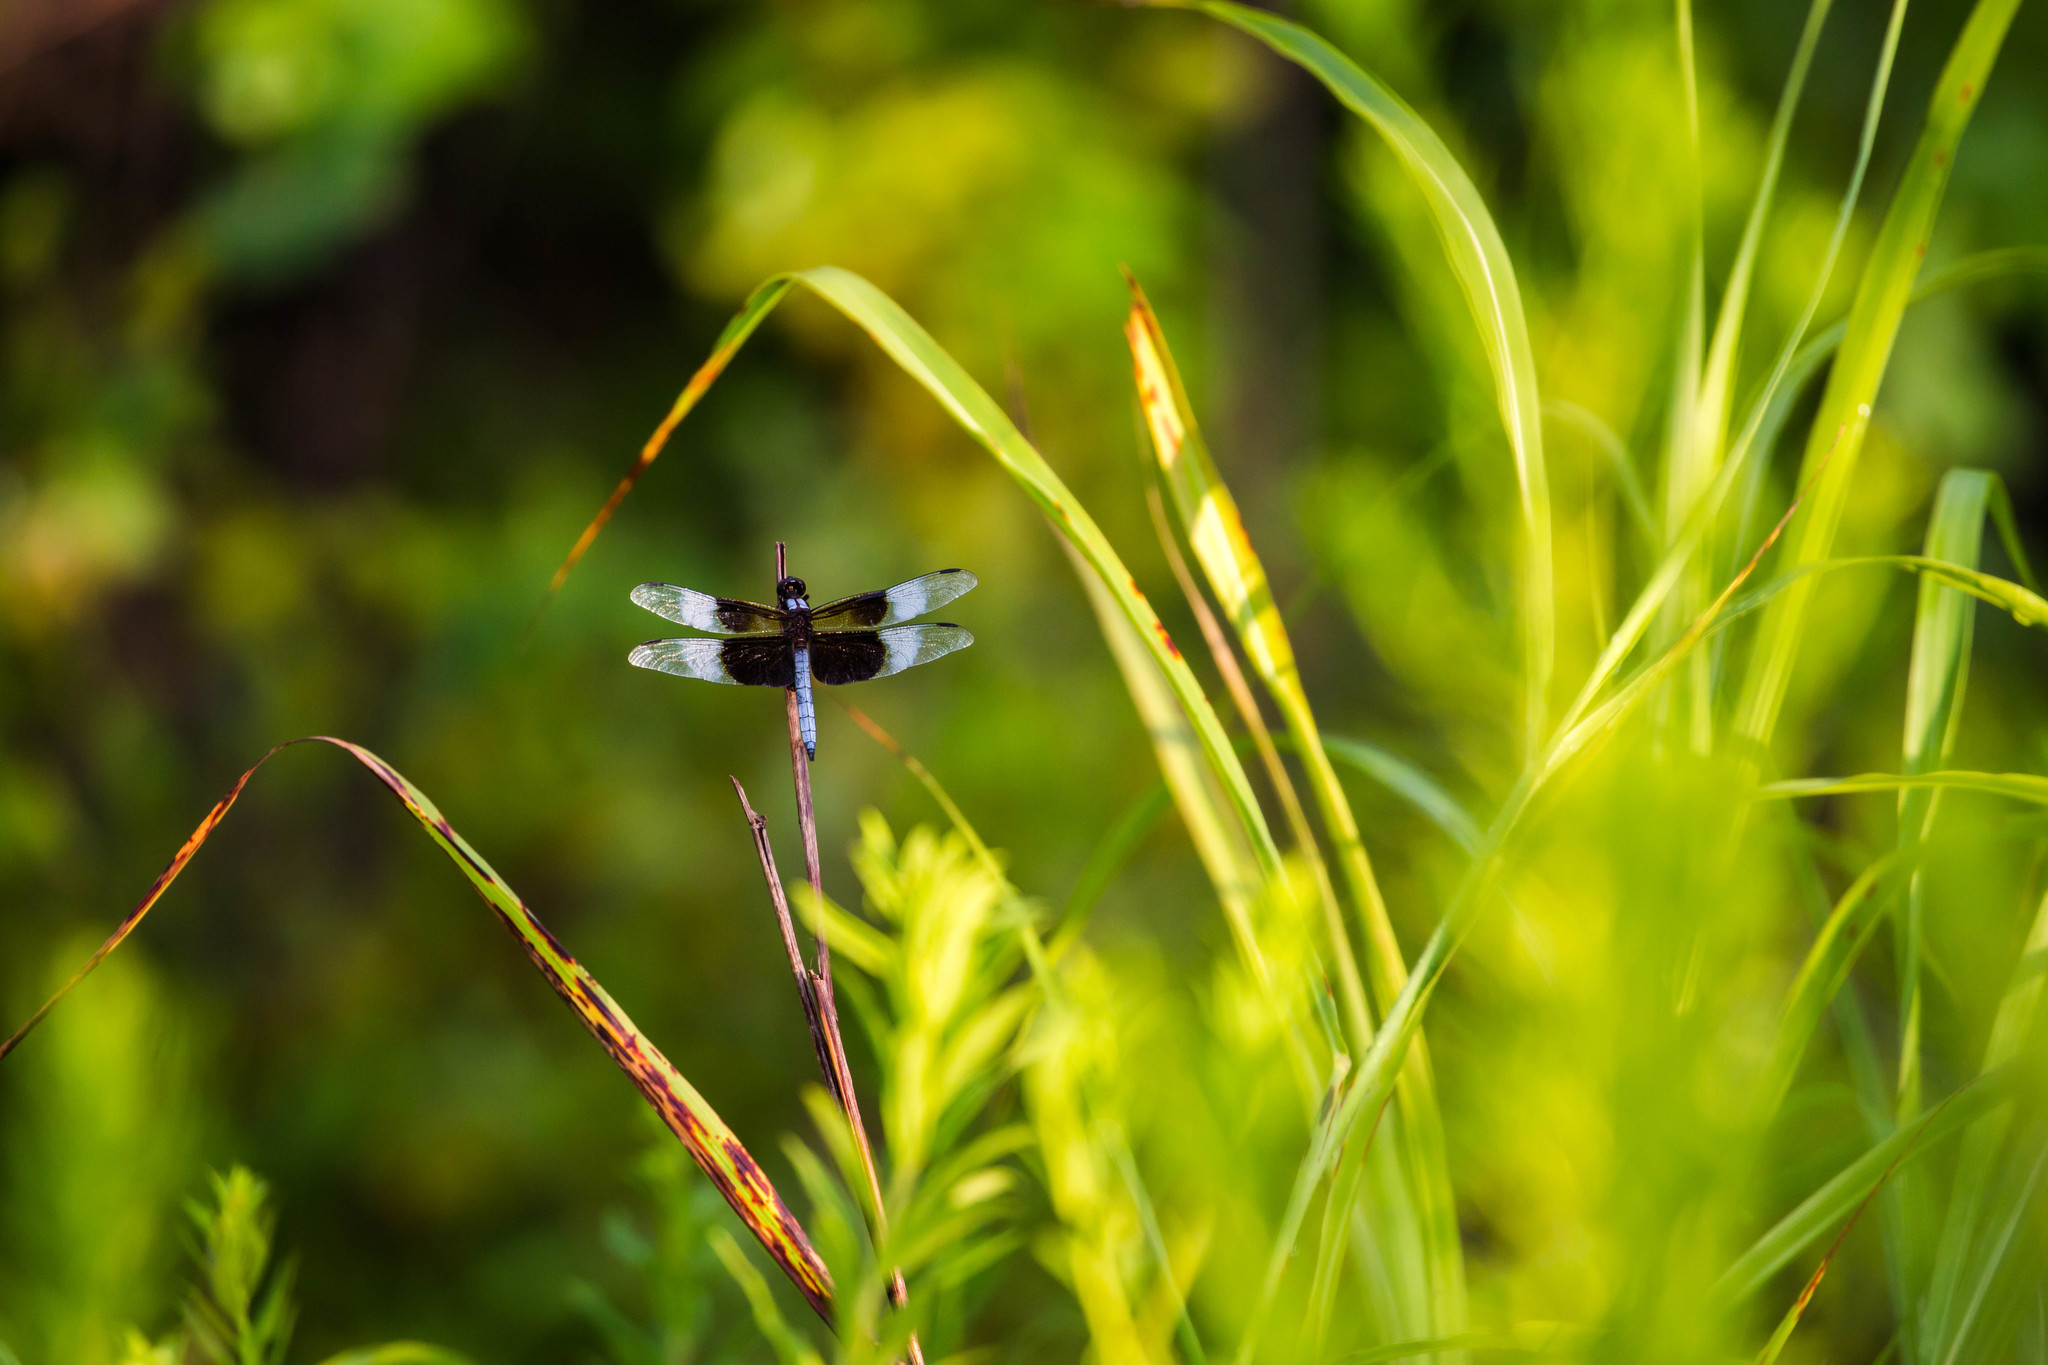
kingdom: Animalia
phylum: Arthropoda
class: Insecta
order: Odonata
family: Libellulidae
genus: Libellula
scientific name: Libellula luctuosa
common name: Widow skimmer
